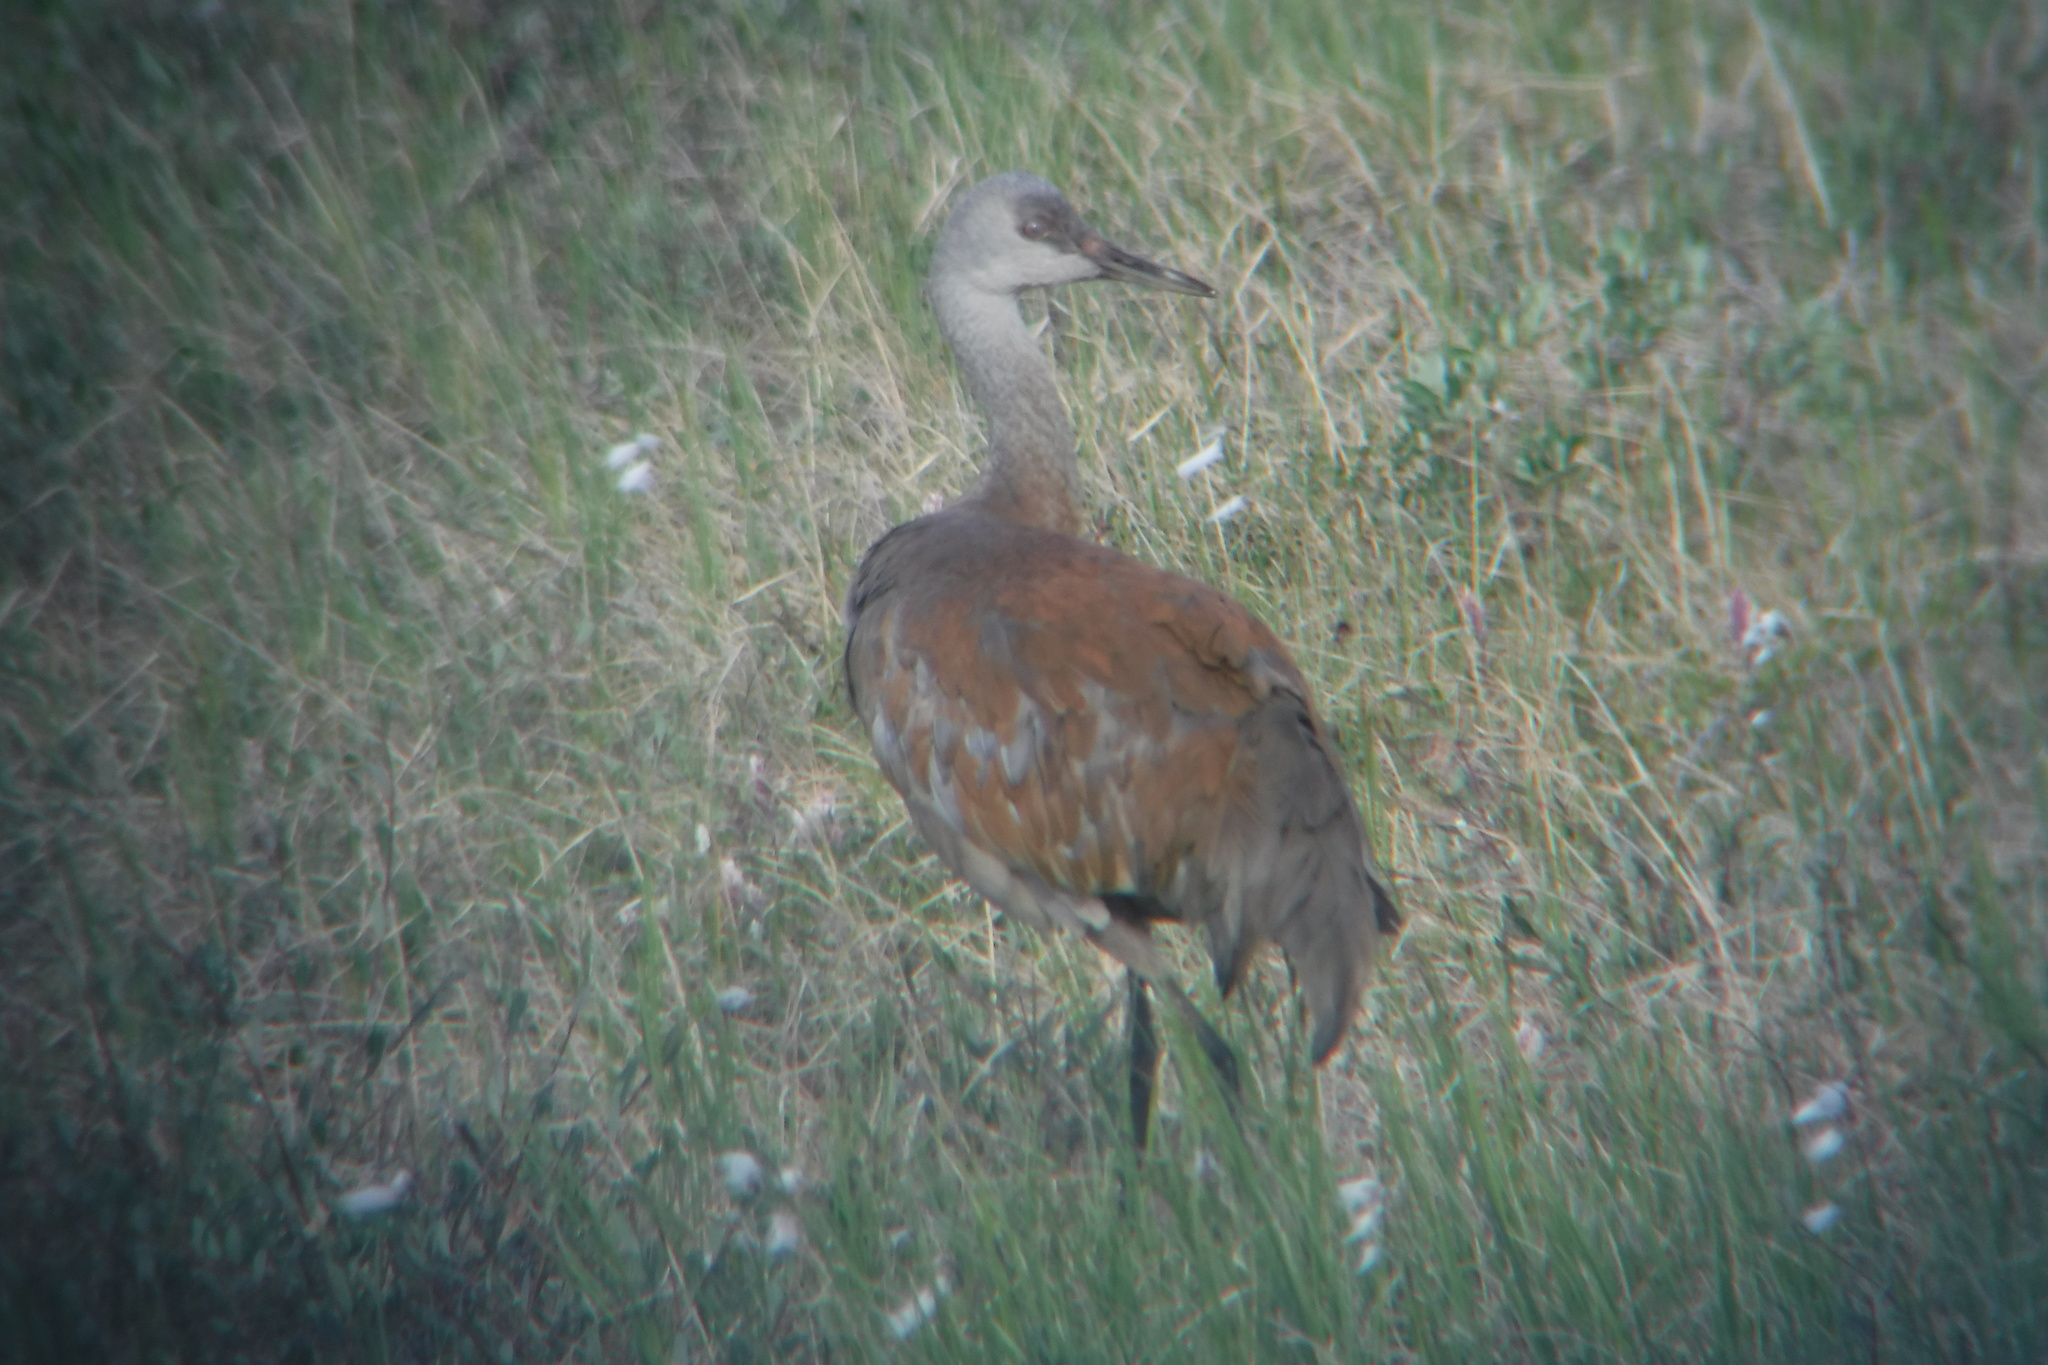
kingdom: Animalia
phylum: Chordata
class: Aves
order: Gruiformes
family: Gruidae
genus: Grus
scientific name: Grus canadensis
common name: Sandhill crane
